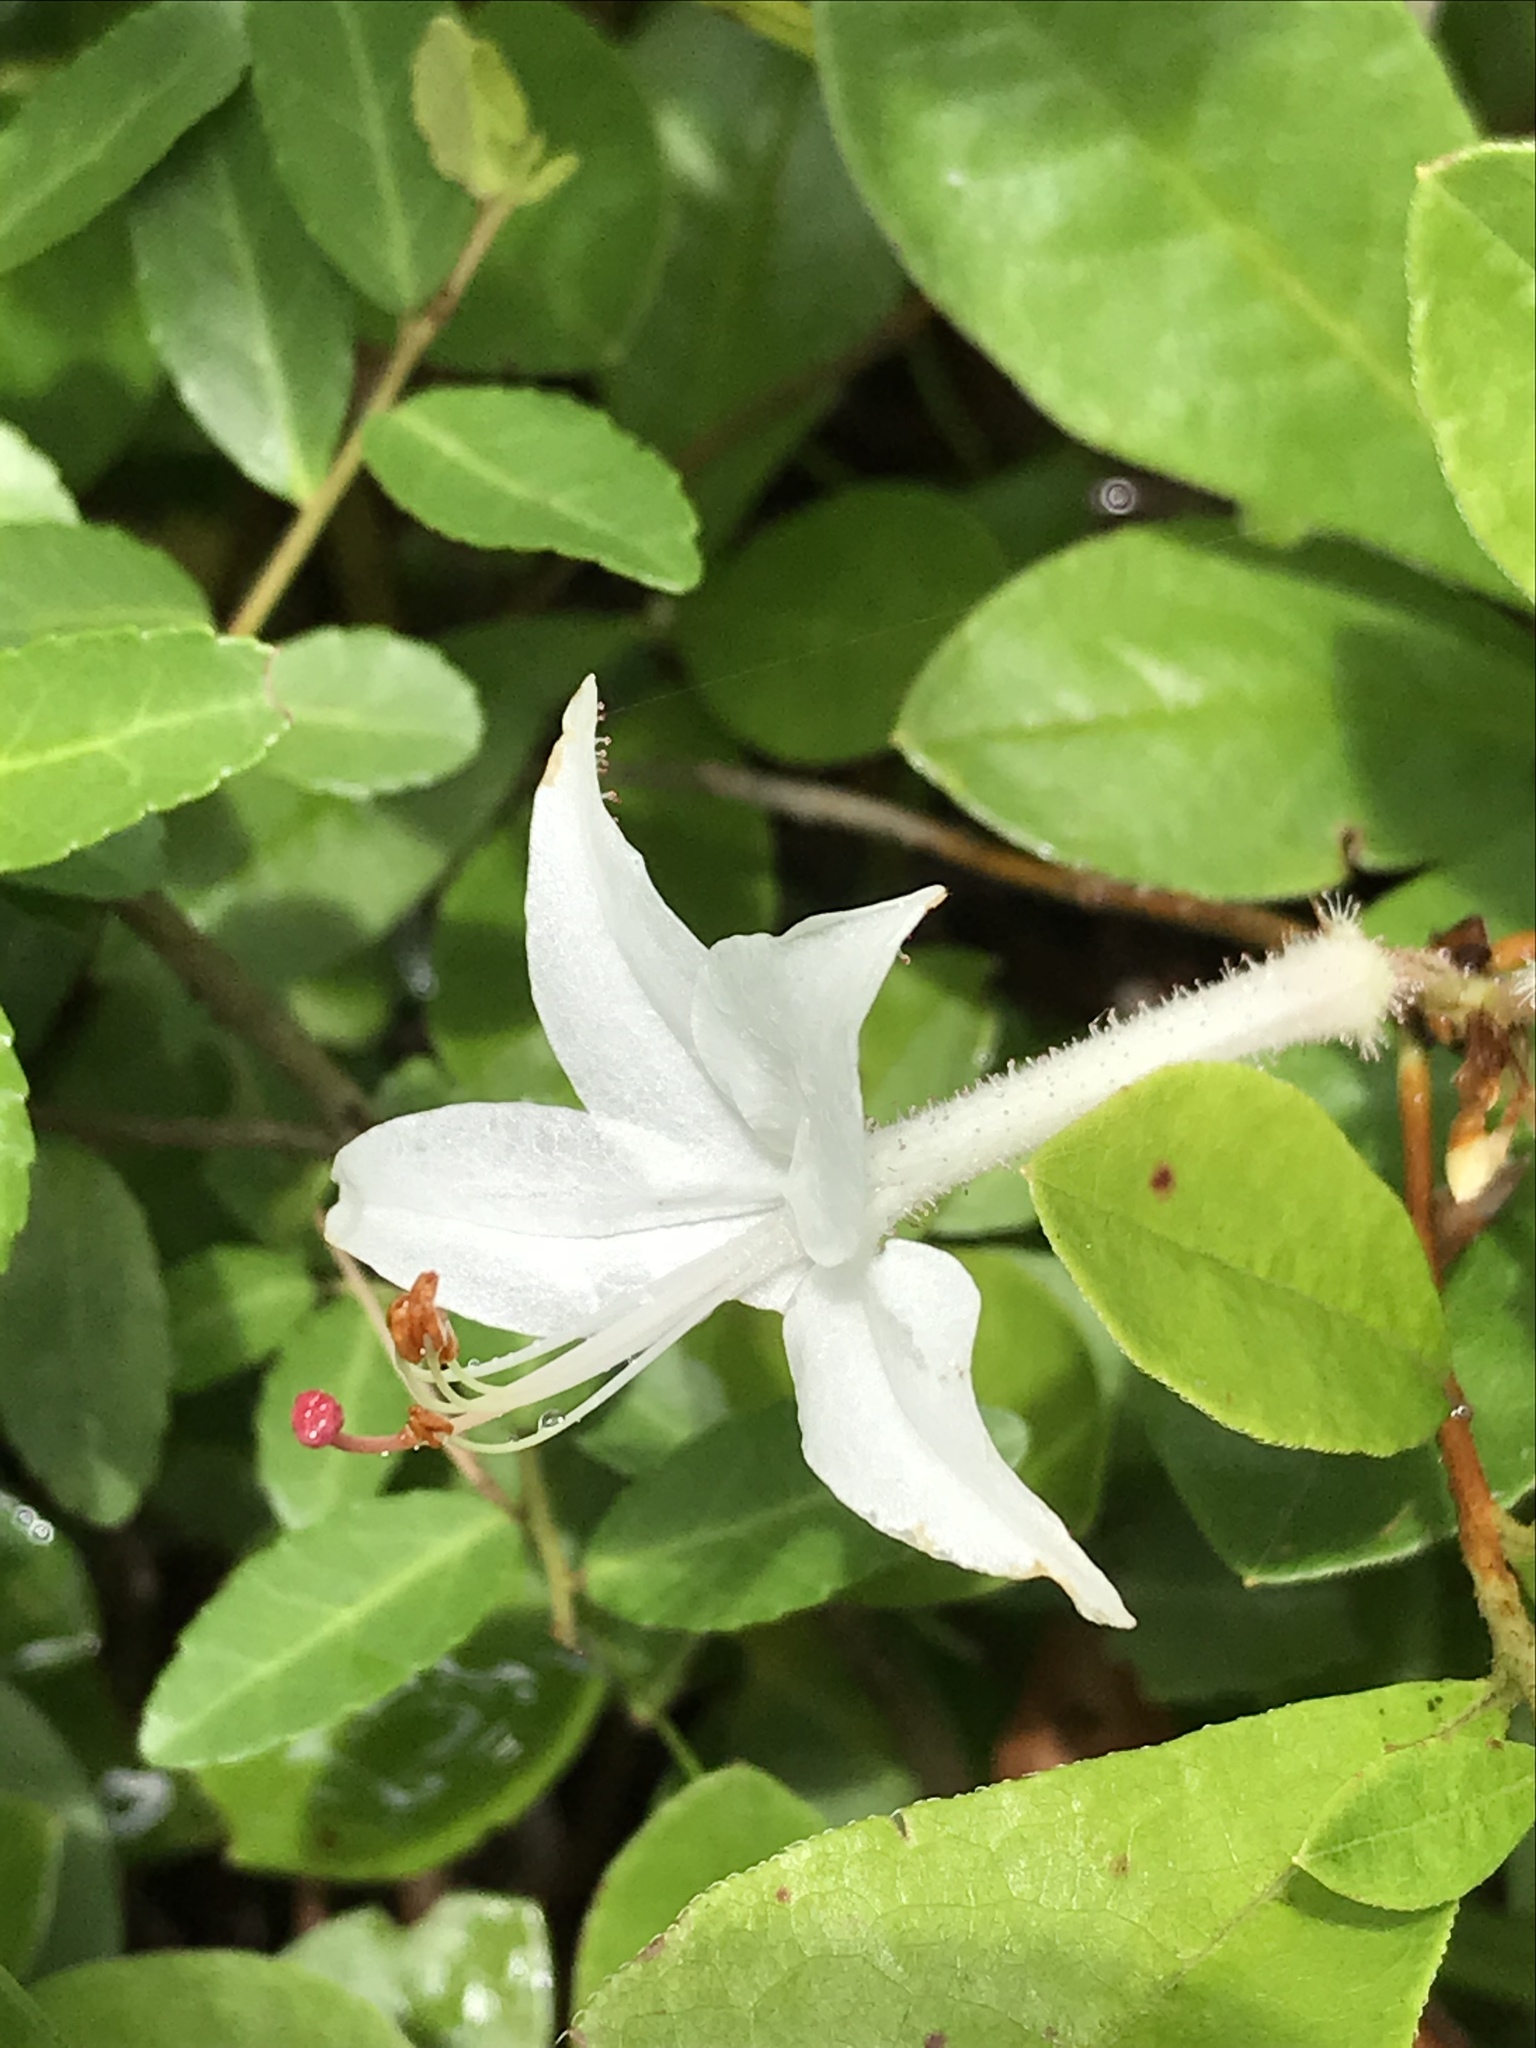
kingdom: Plantae
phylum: Tracheophyta
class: Magnoliopsida
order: Ericales
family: Ericaceae
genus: Rhododendron
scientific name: Rhododendron viscosum
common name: Clammy azalea
